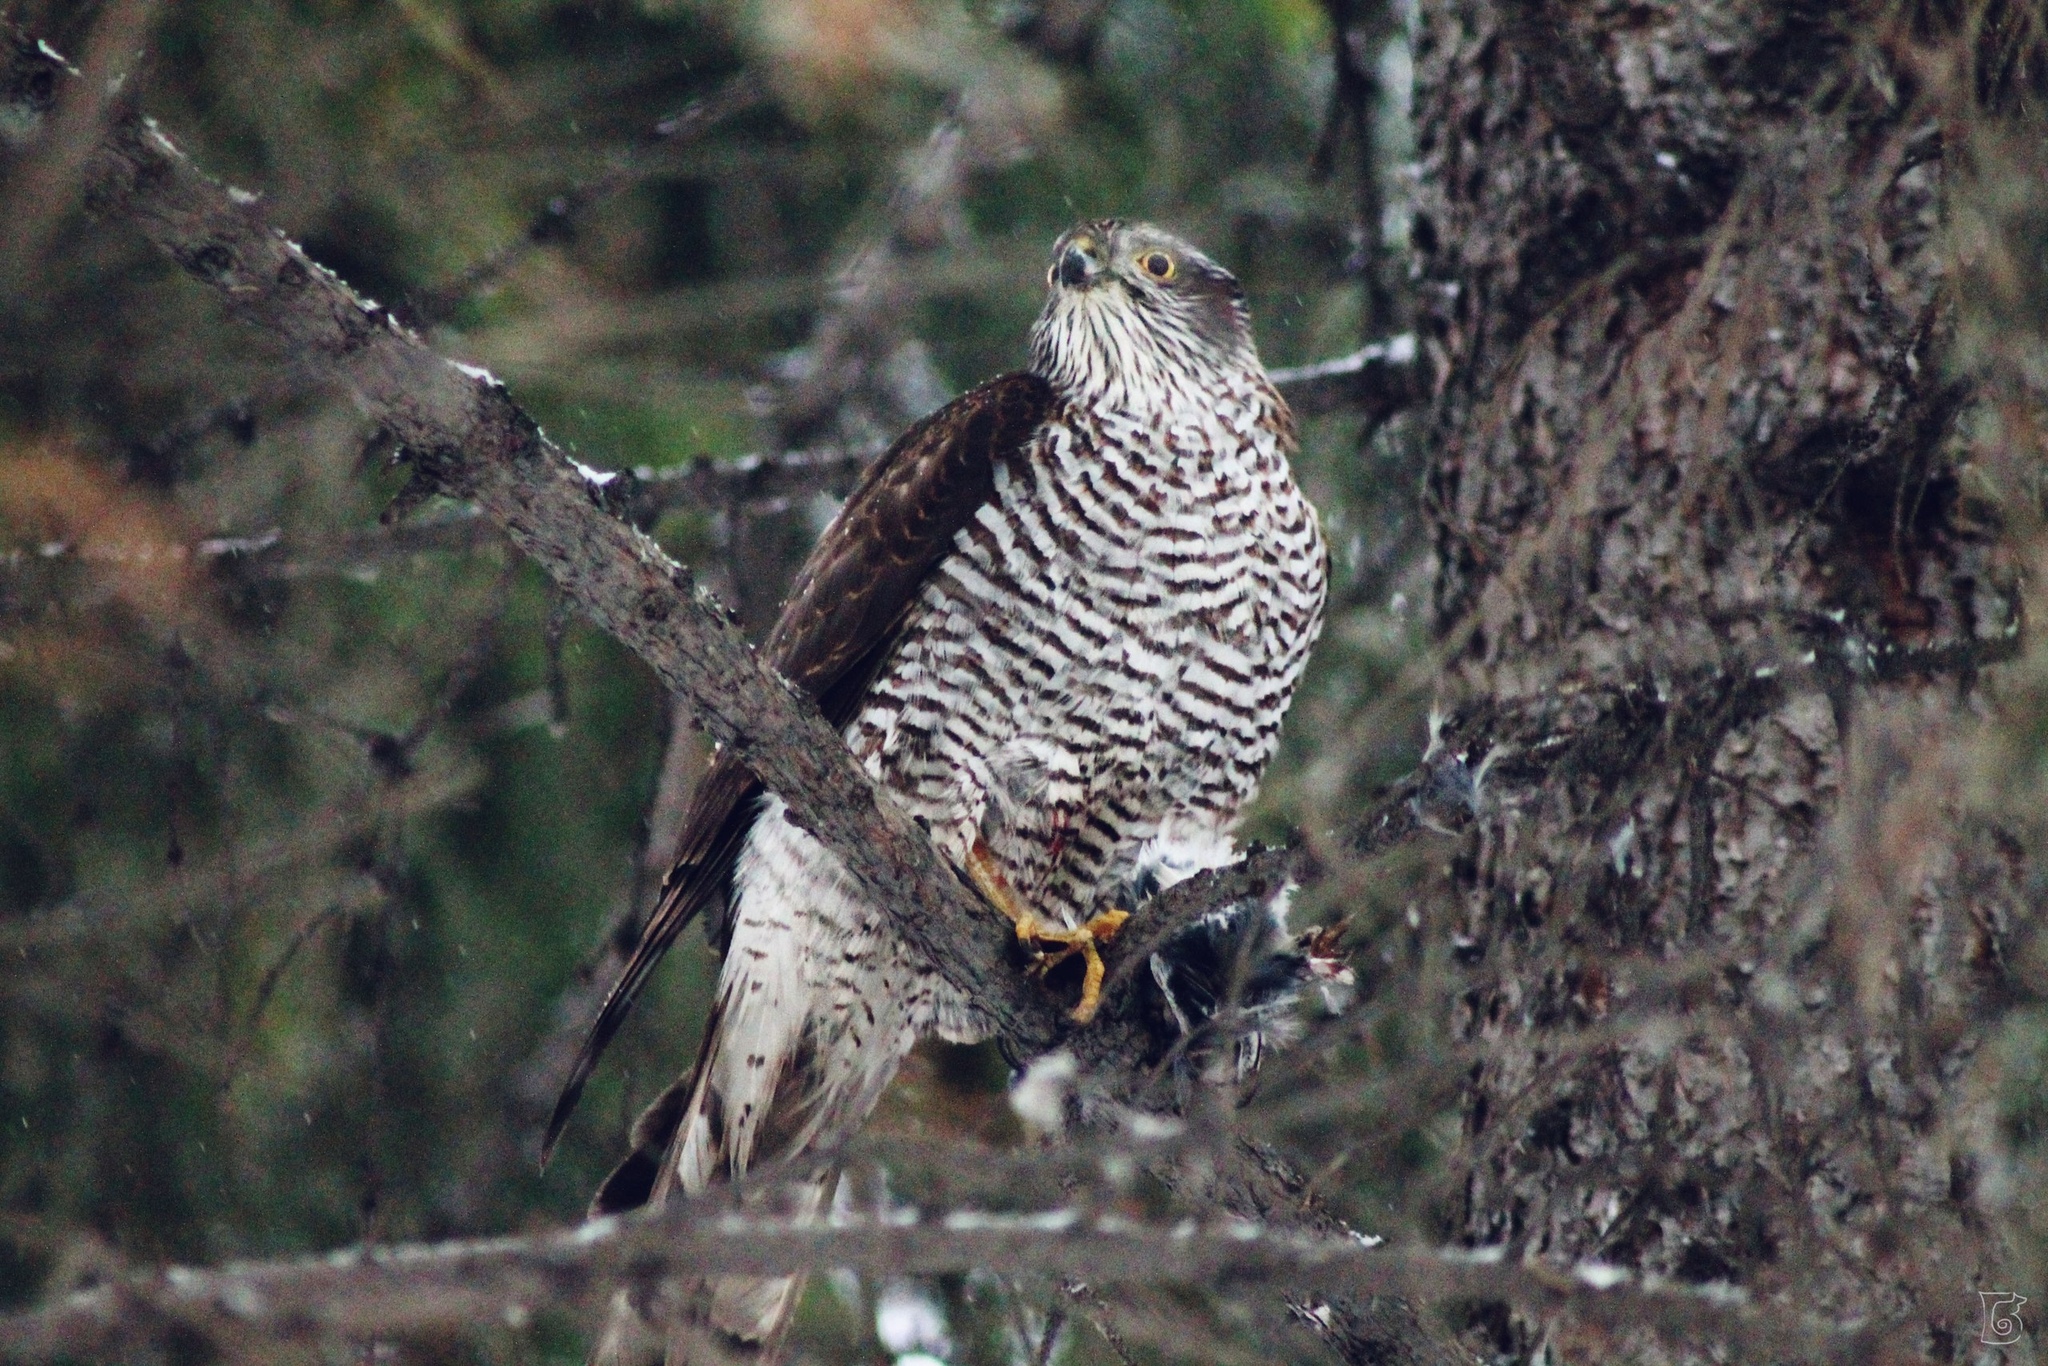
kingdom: Animalia
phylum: Chordata
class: Aves
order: Accipitriformes
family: Accipitridae
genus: Accipiter
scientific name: Accipiter nisus
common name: Eurasian sparrowhawk
